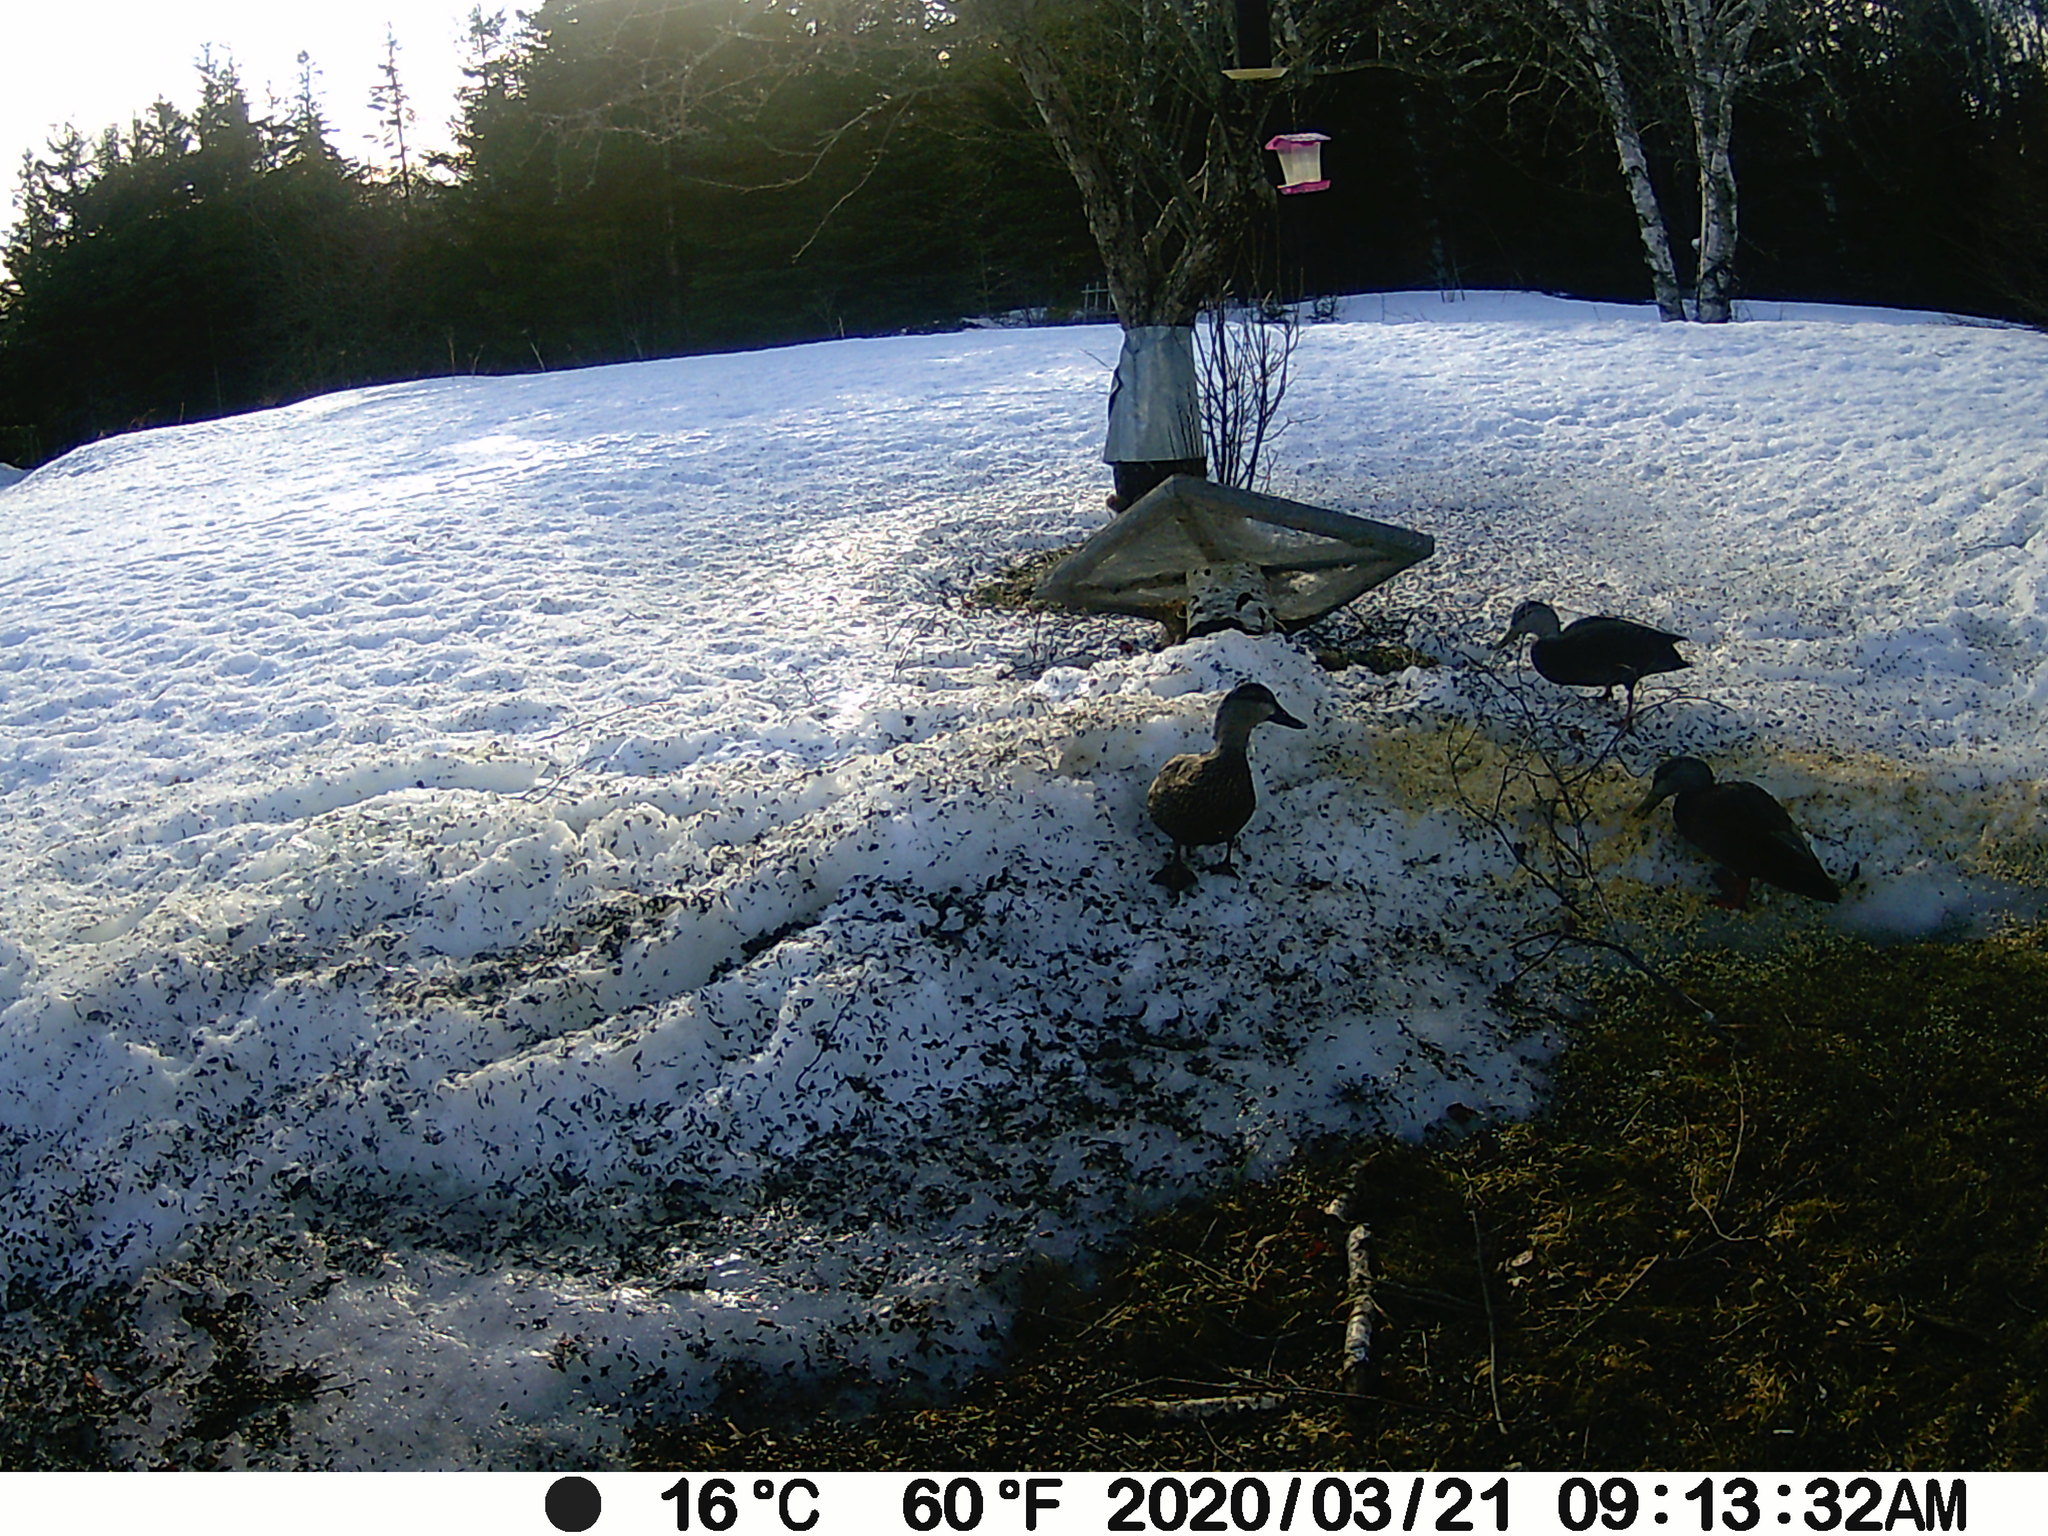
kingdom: Animalia
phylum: Chordata
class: Aves
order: Anseriformes
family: Anatidae
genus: Anas
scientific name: Anas rubripes
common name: American black duck
